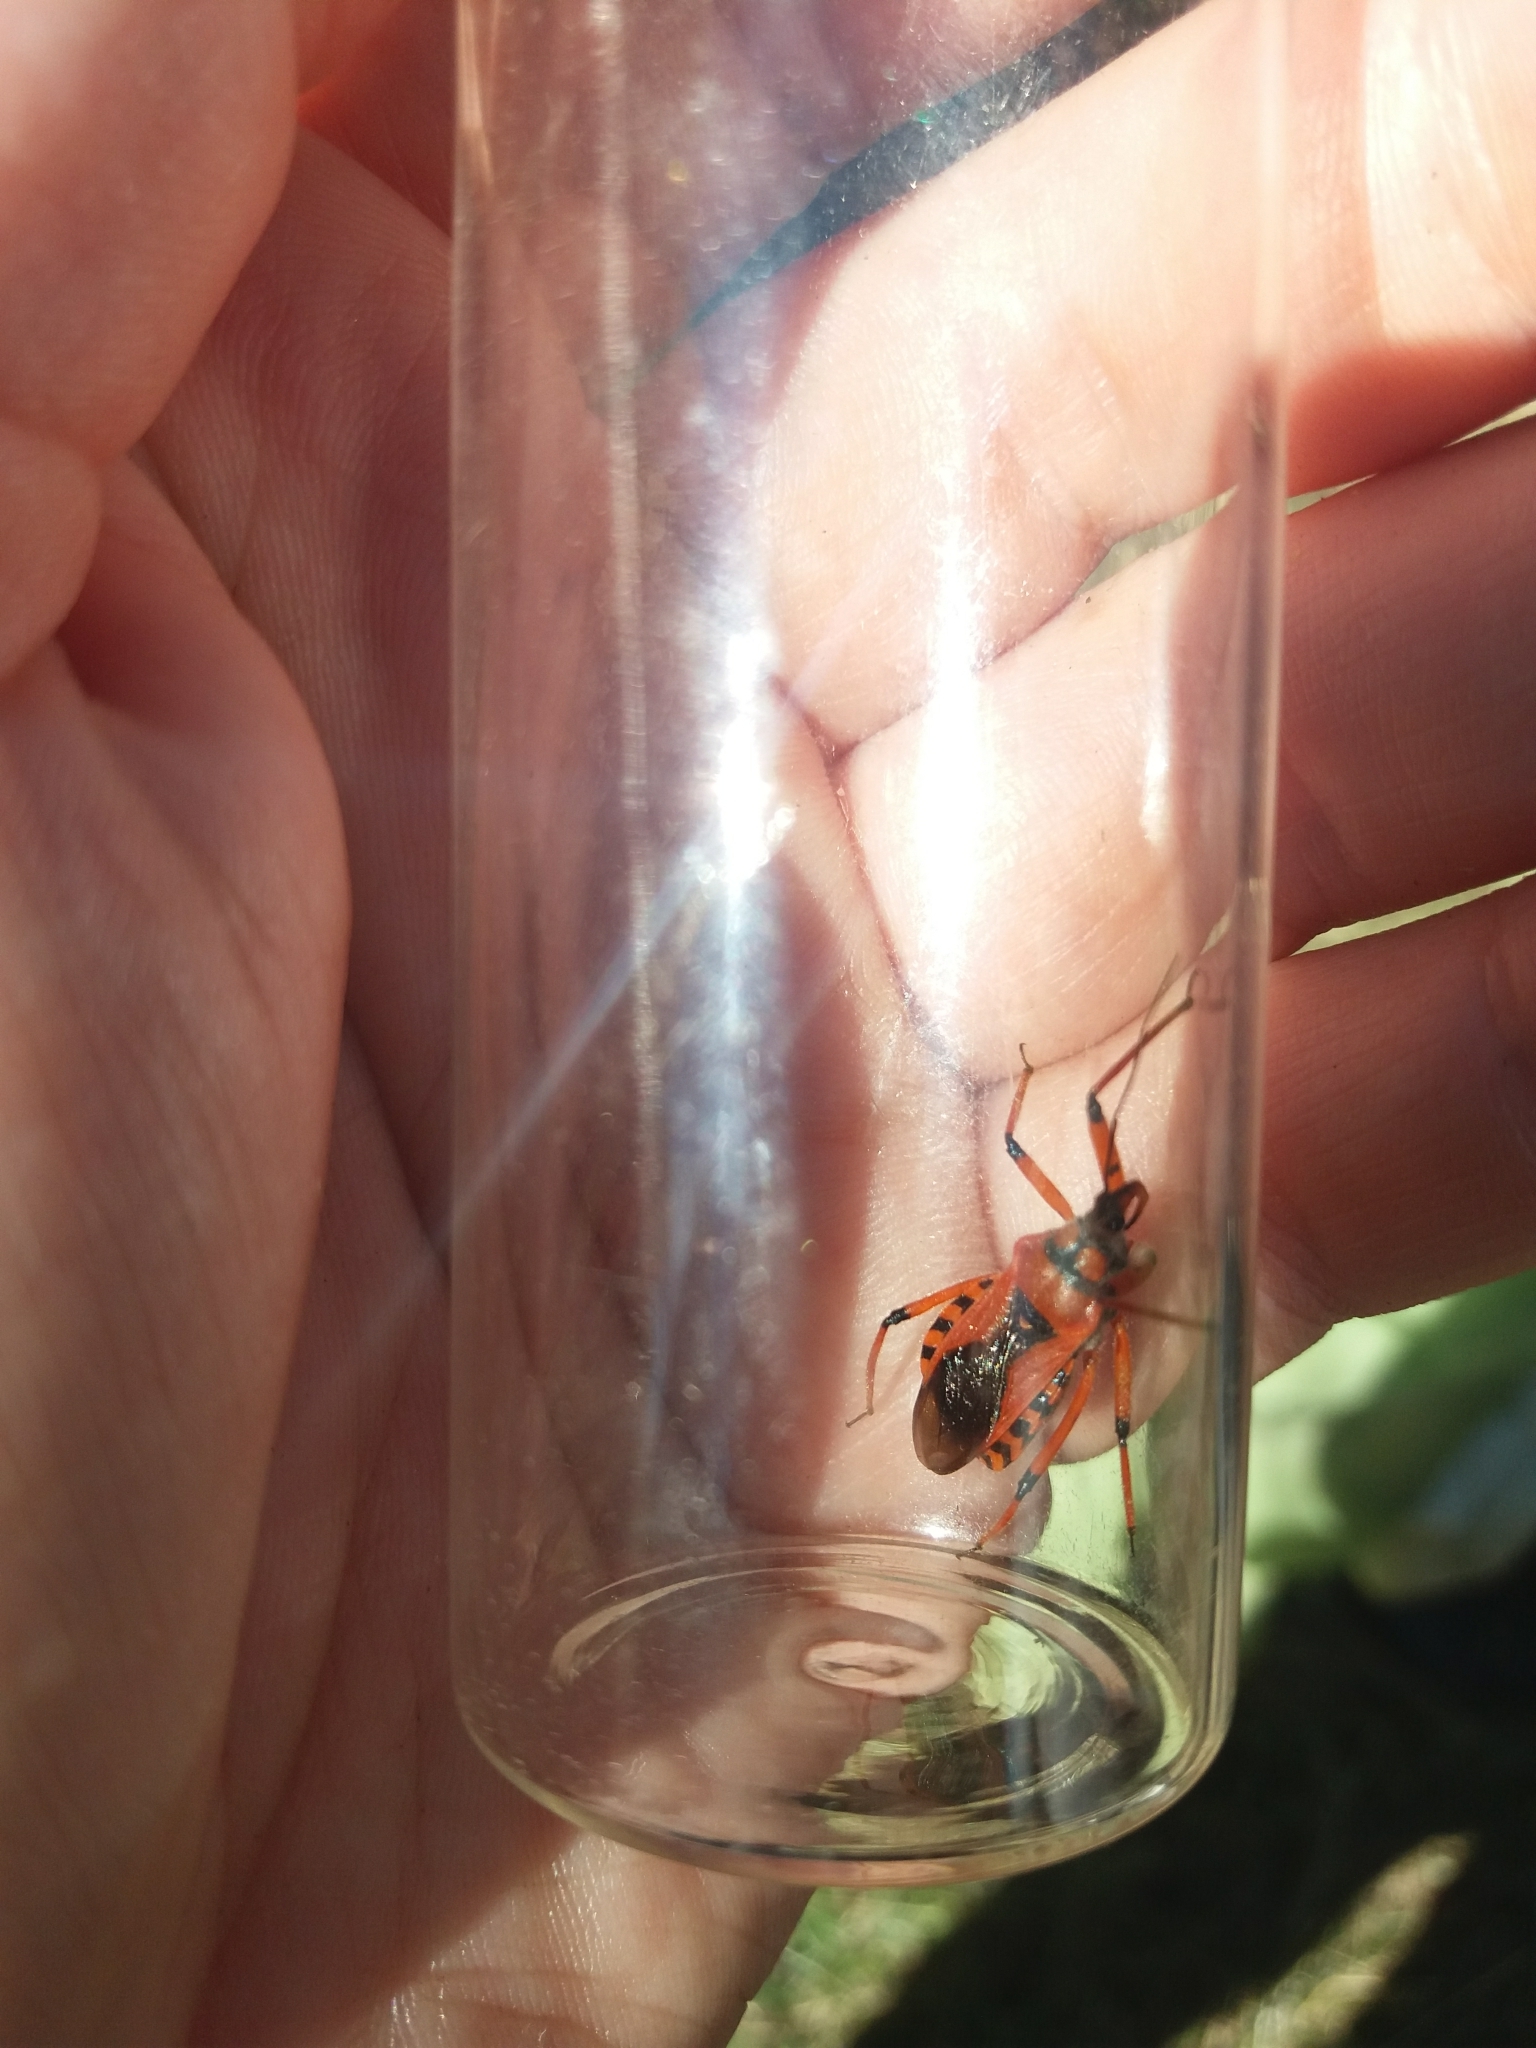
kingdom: Animalia
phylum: Arthropoda
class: Insecta
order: Hemiptera
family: Reduviidae
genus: Rhynocoris
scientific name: Rhynocoris iracundus
